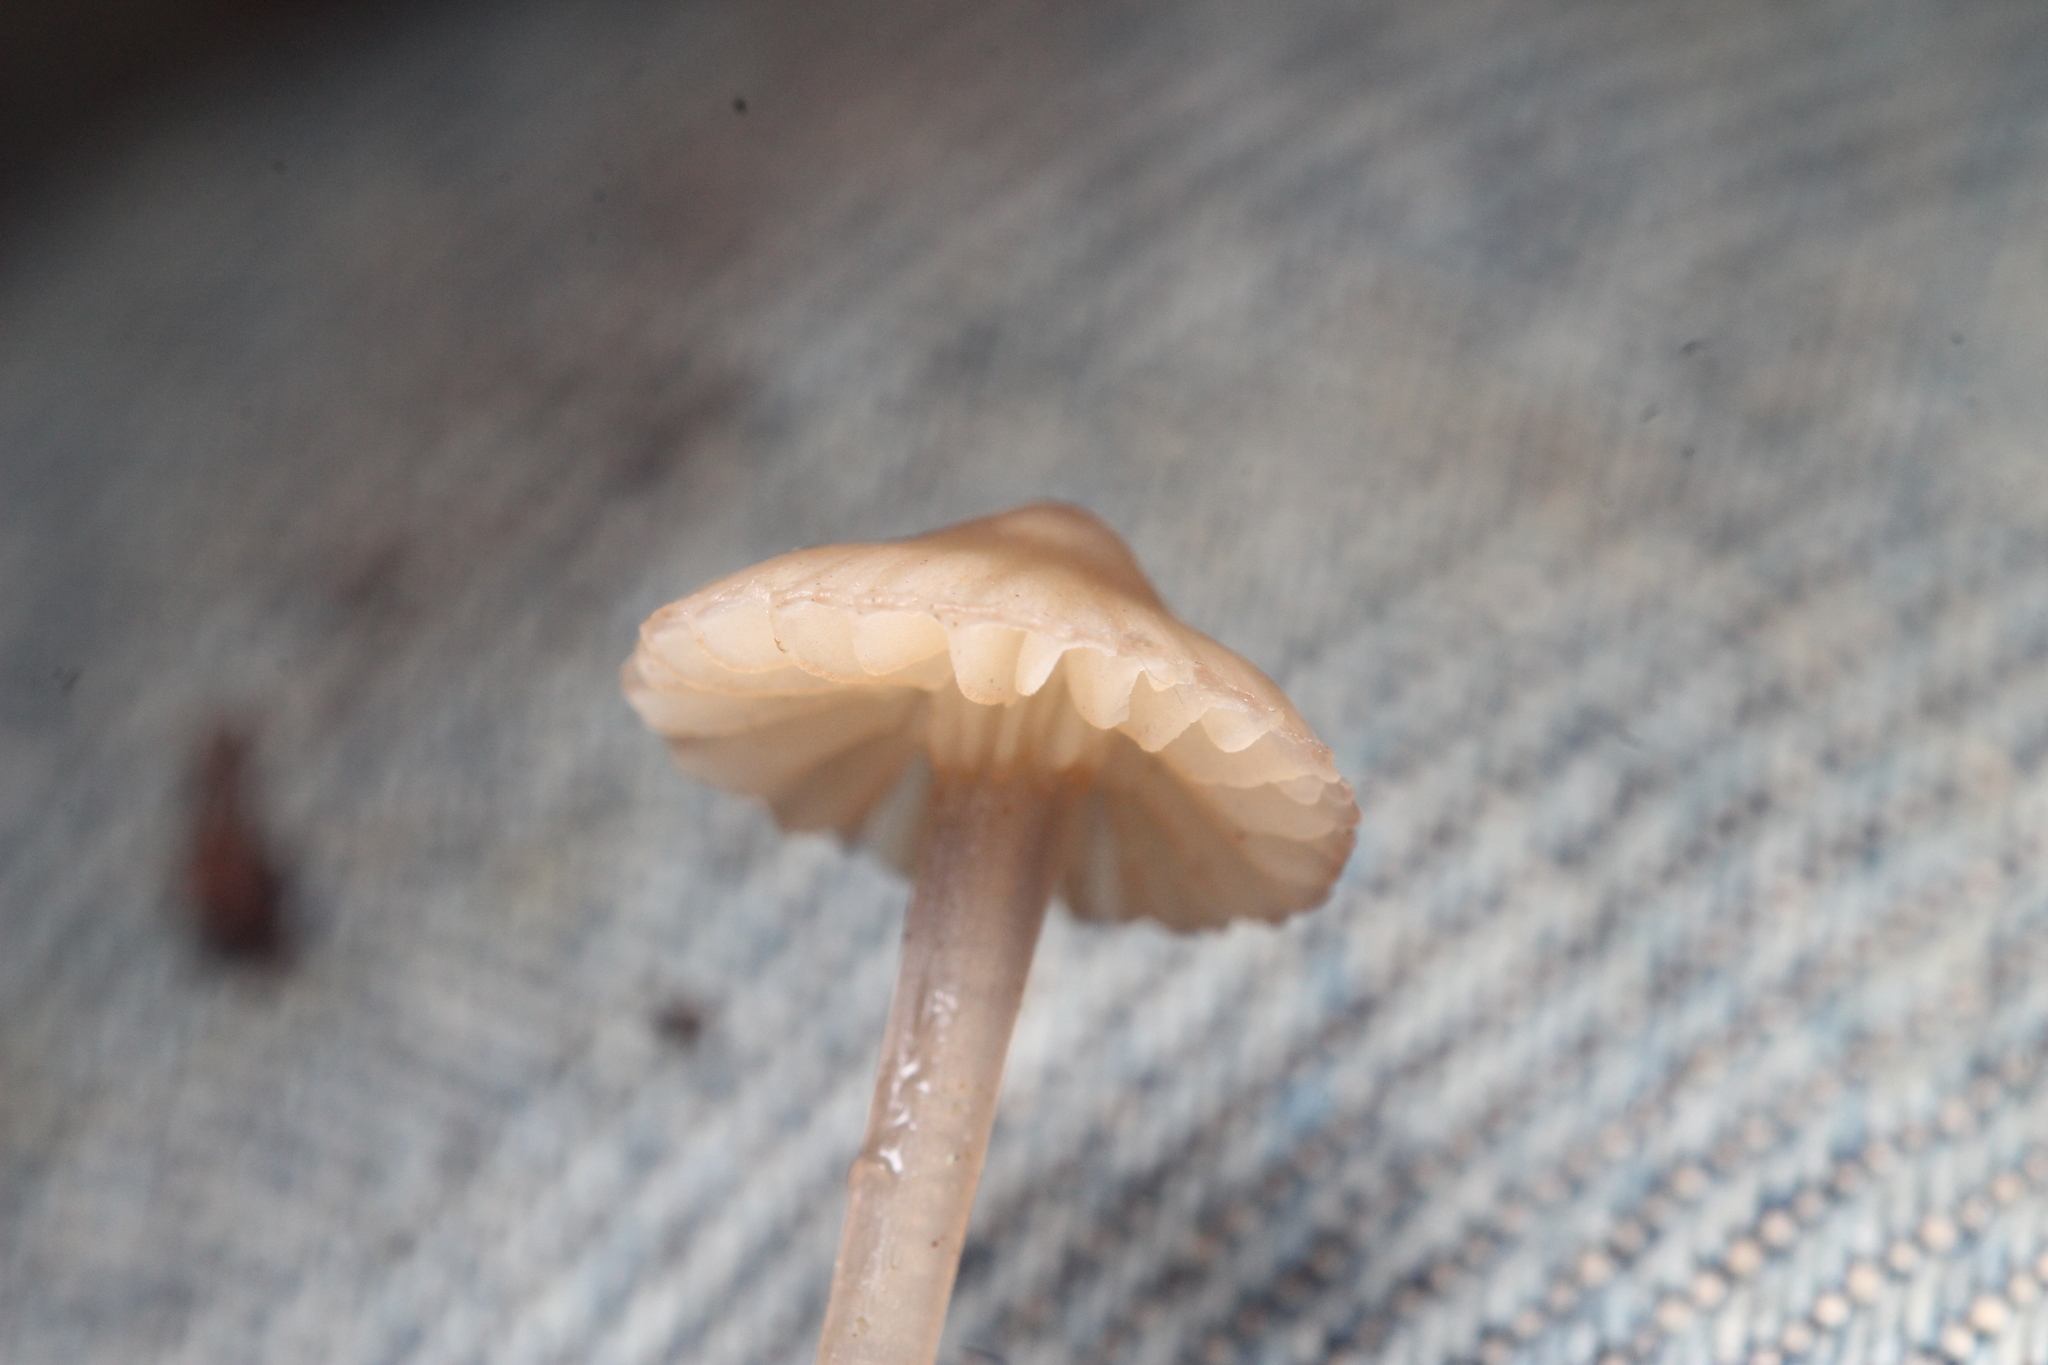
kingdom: Fungi
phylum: Basidiomycota
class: Agaricomycetes
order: Agaricales
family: Mycenaceae
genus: Mycena
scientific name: Mycena
